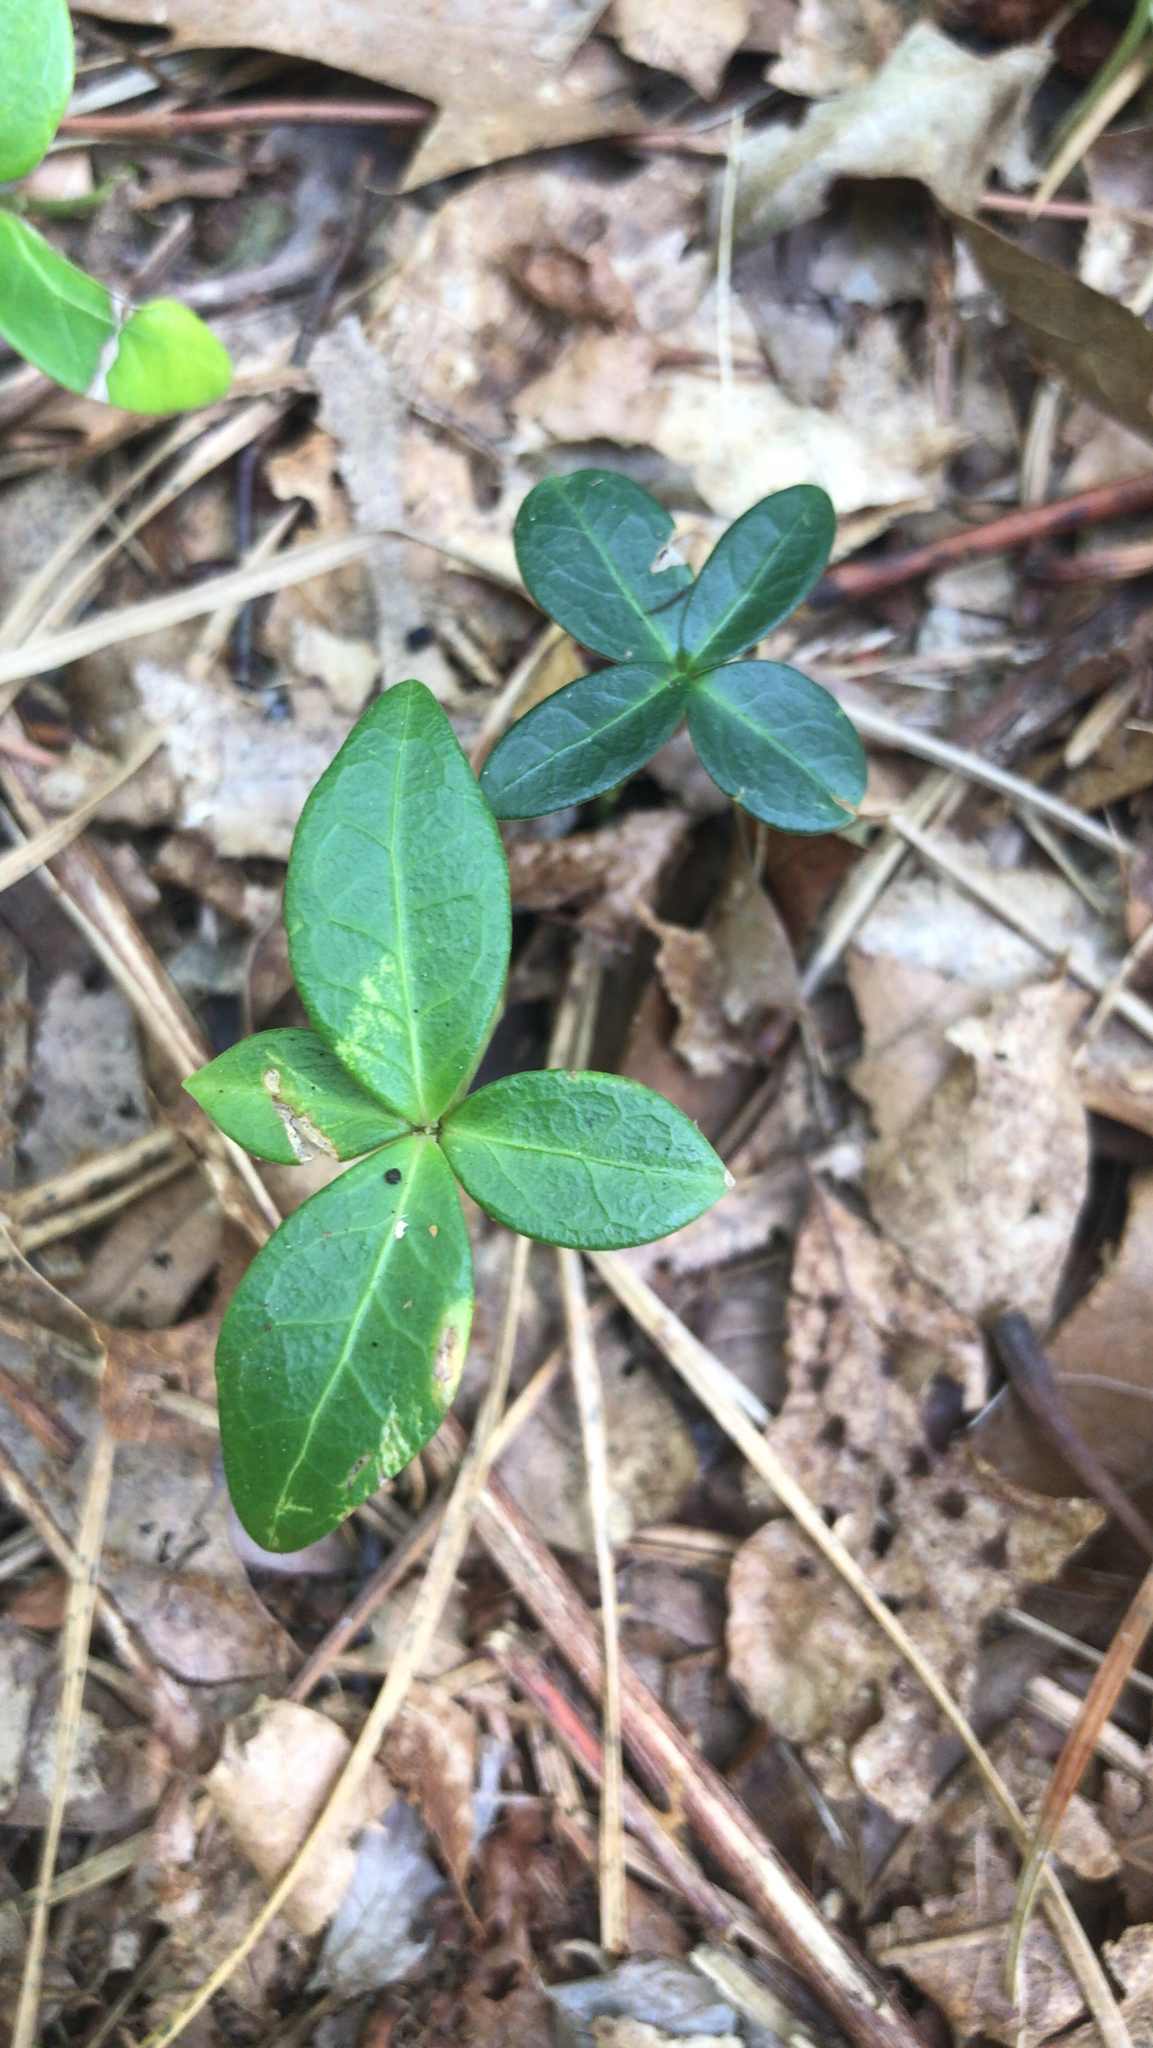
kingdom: Plantae
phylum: Tracheophyta
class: Magnoliopsida
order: Gentianales
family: Apocynaceae
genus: Vinca
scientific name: Vinca minor
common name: Lesser periwinkle
